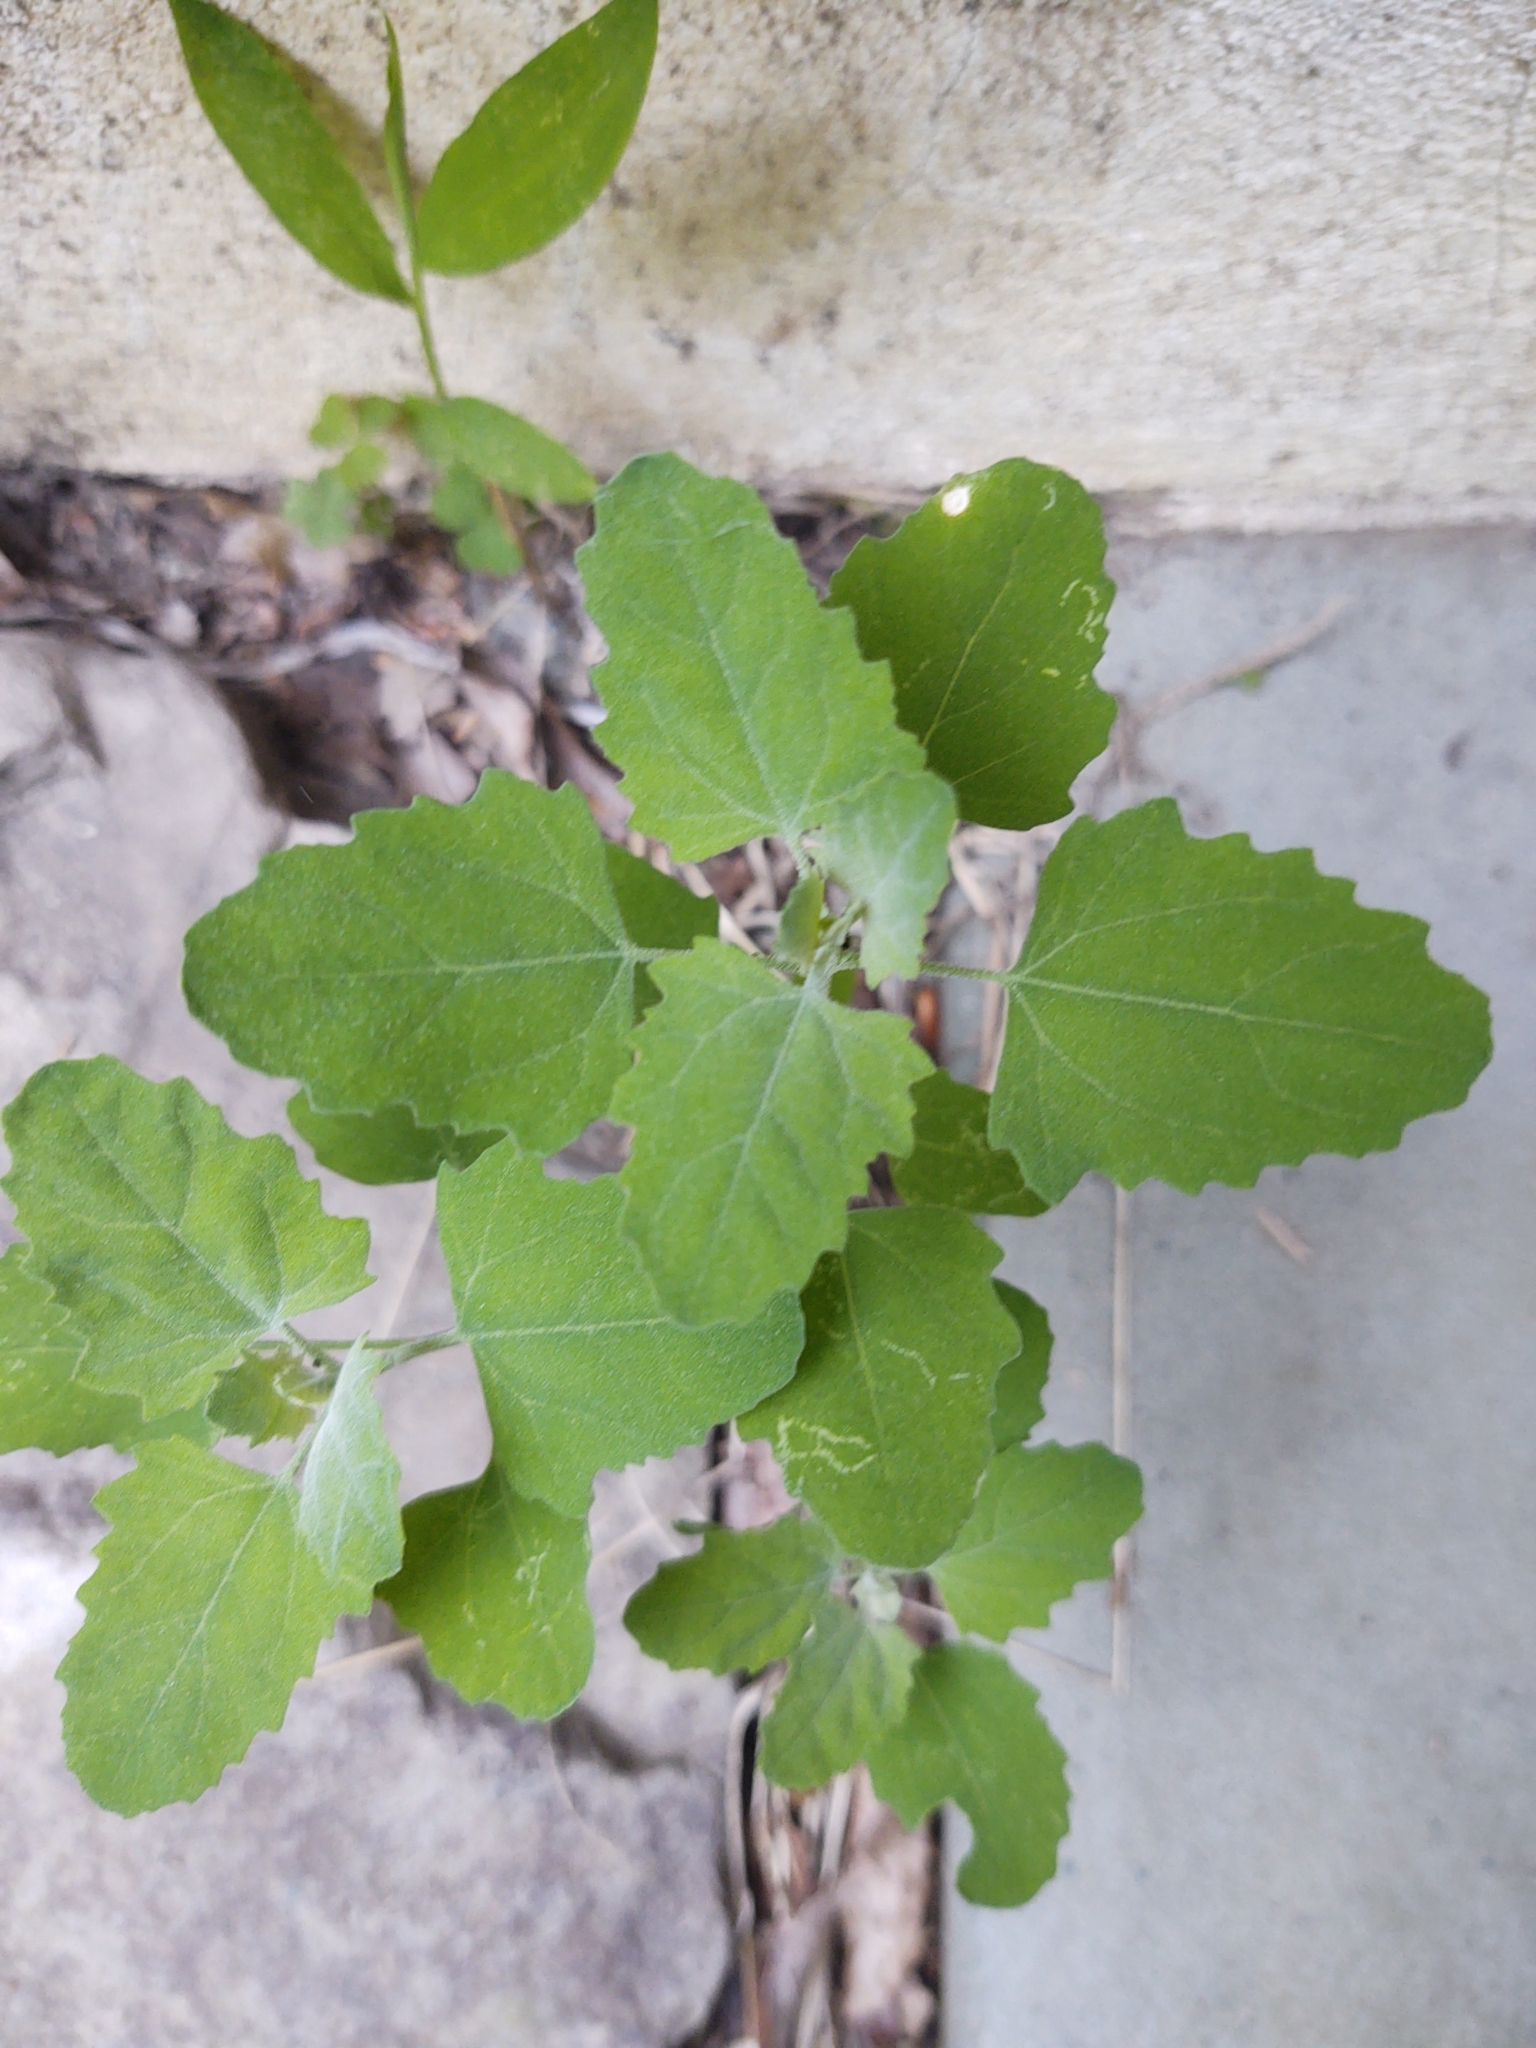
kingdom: Plantae
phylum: Tracheophyta
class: Magnoliopsida
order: Caryophyllales
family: Amaranthaceae
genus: Chenopodium
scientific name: Chenopodium album
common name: Fat-hen
